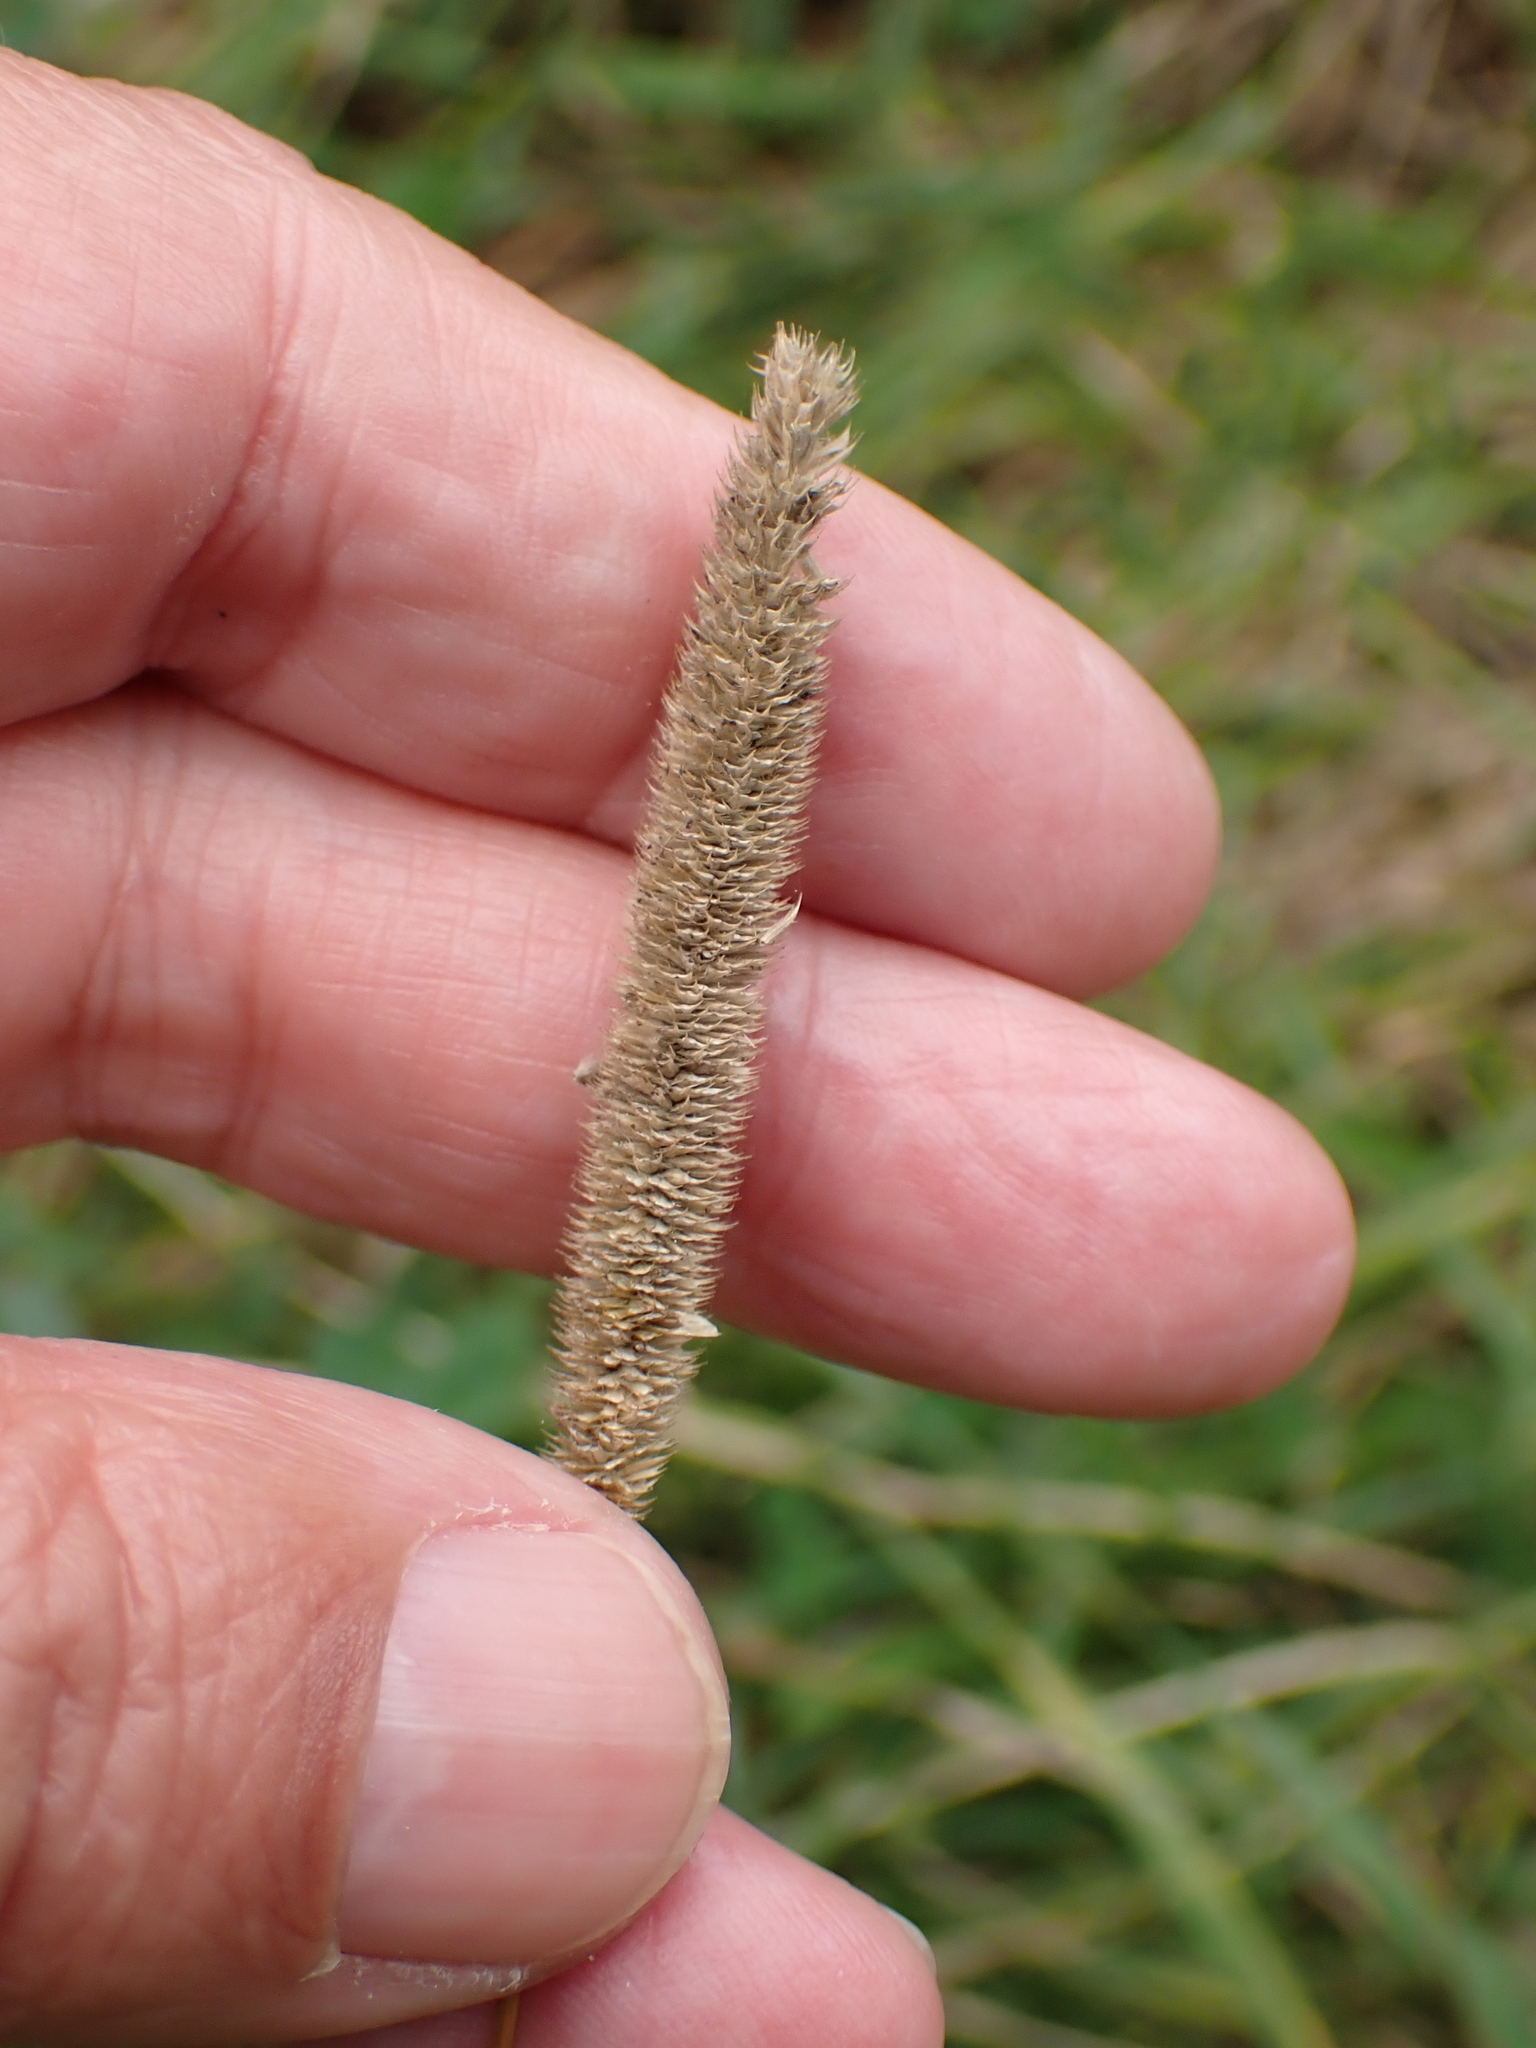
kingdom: Plantae
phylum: Tracheophyta
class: Liliopsida
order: Poales
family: Poaceae
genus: Phleum
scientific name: Phleum pratense
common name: Timothy grass
